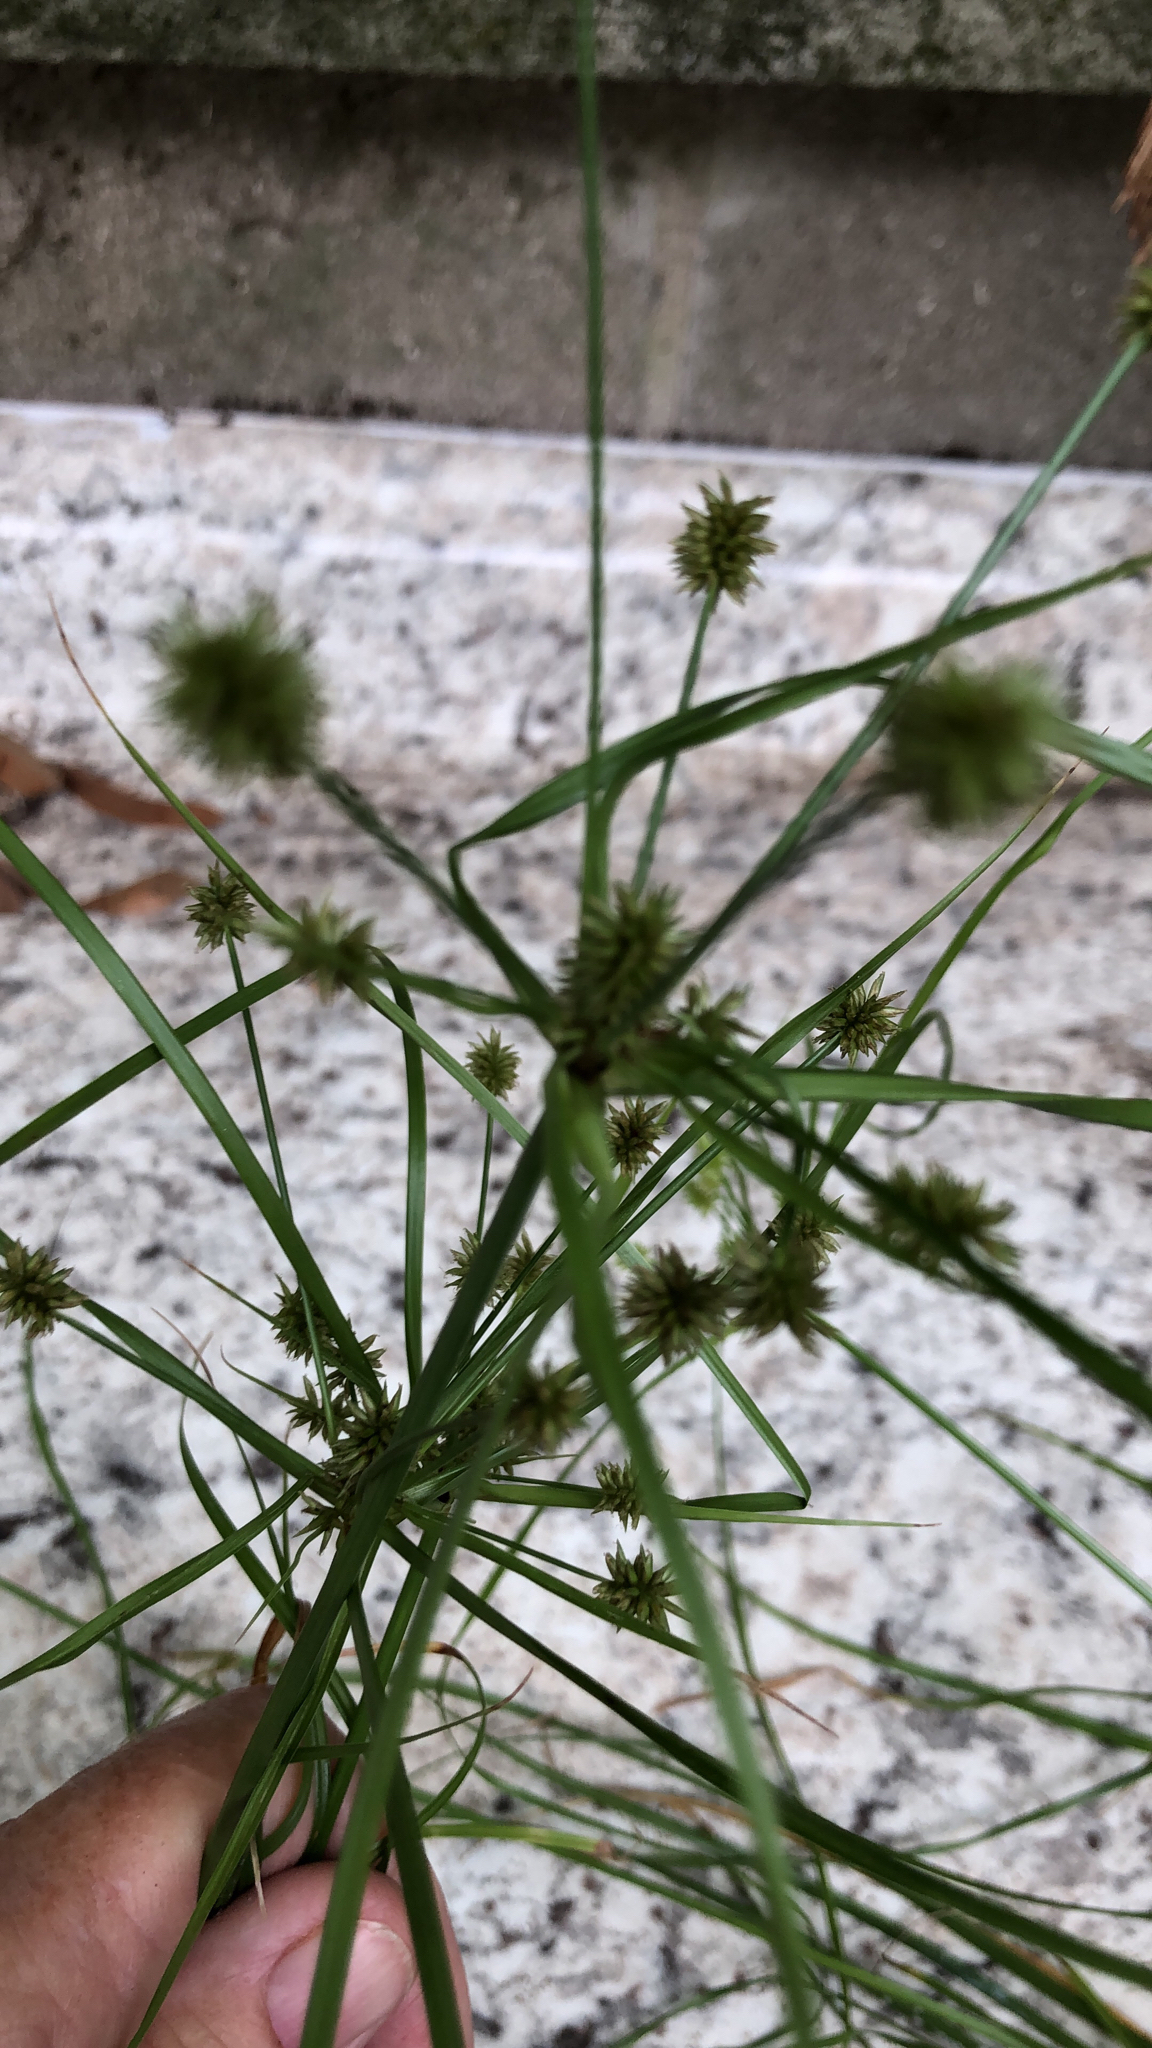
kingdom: Plantae
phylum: Tracheophyta
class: Liliopsida
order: Poales
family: Cyperaceae
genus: Cyperus
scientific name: Cyperus croceus
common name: Baldwin's flatsedge
